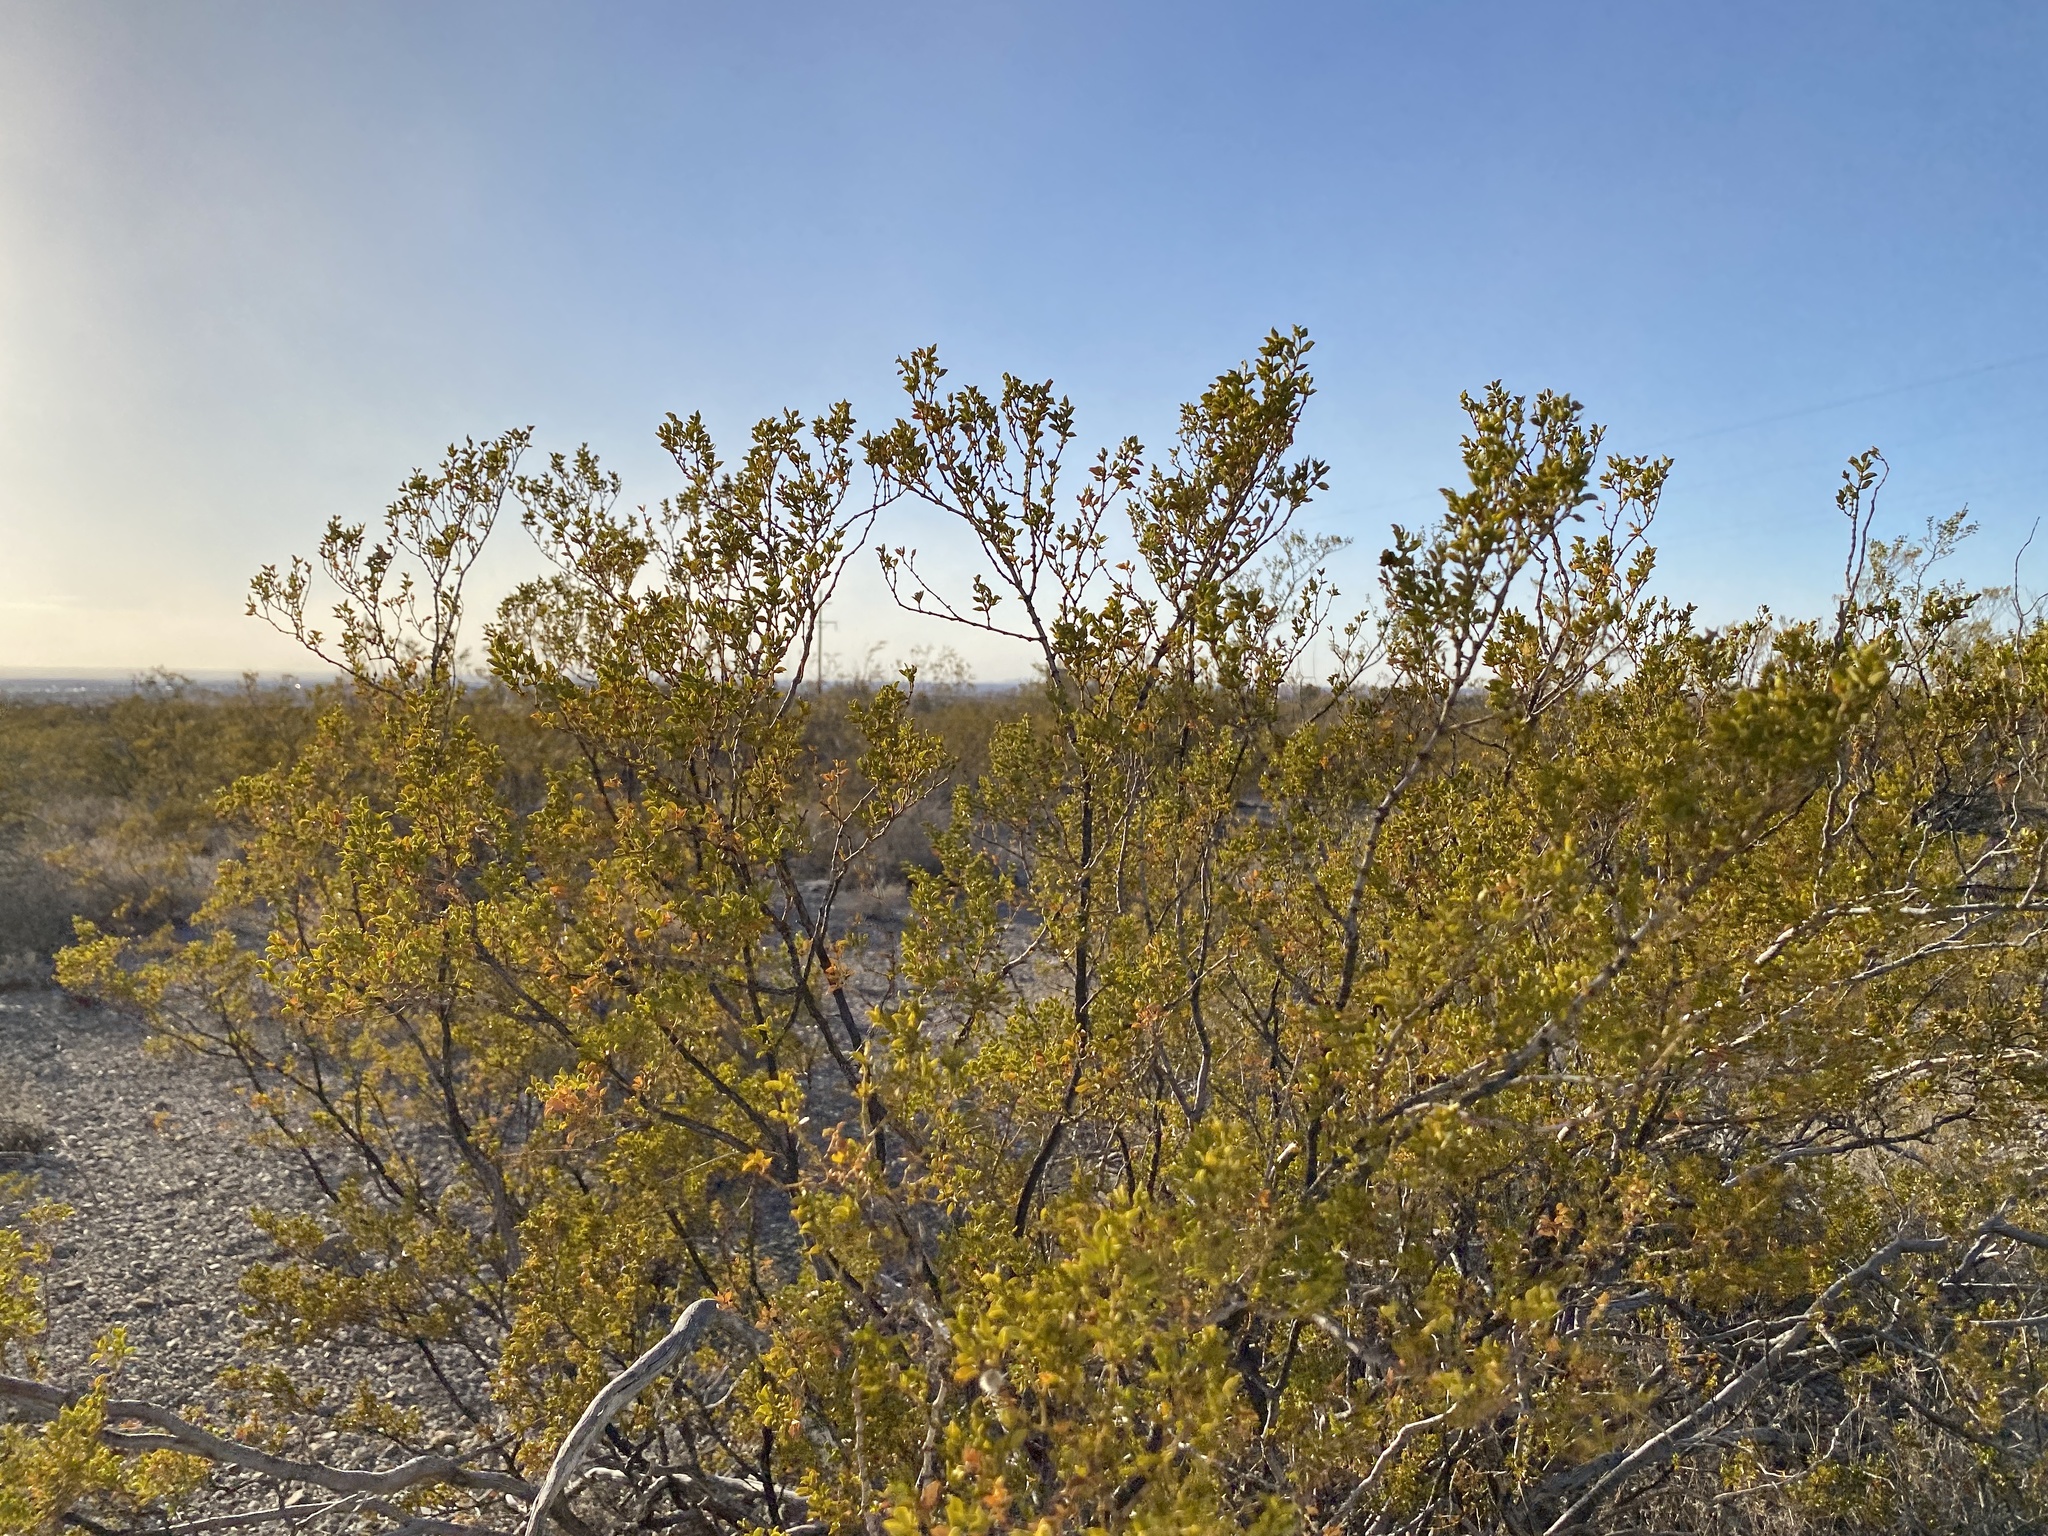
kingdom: Plantae
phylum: Tracheophyta
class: Magnoliopsida
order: Zygophyllales
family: Zygophyllaceae
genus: Larrea
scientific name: Larrea tridentata
